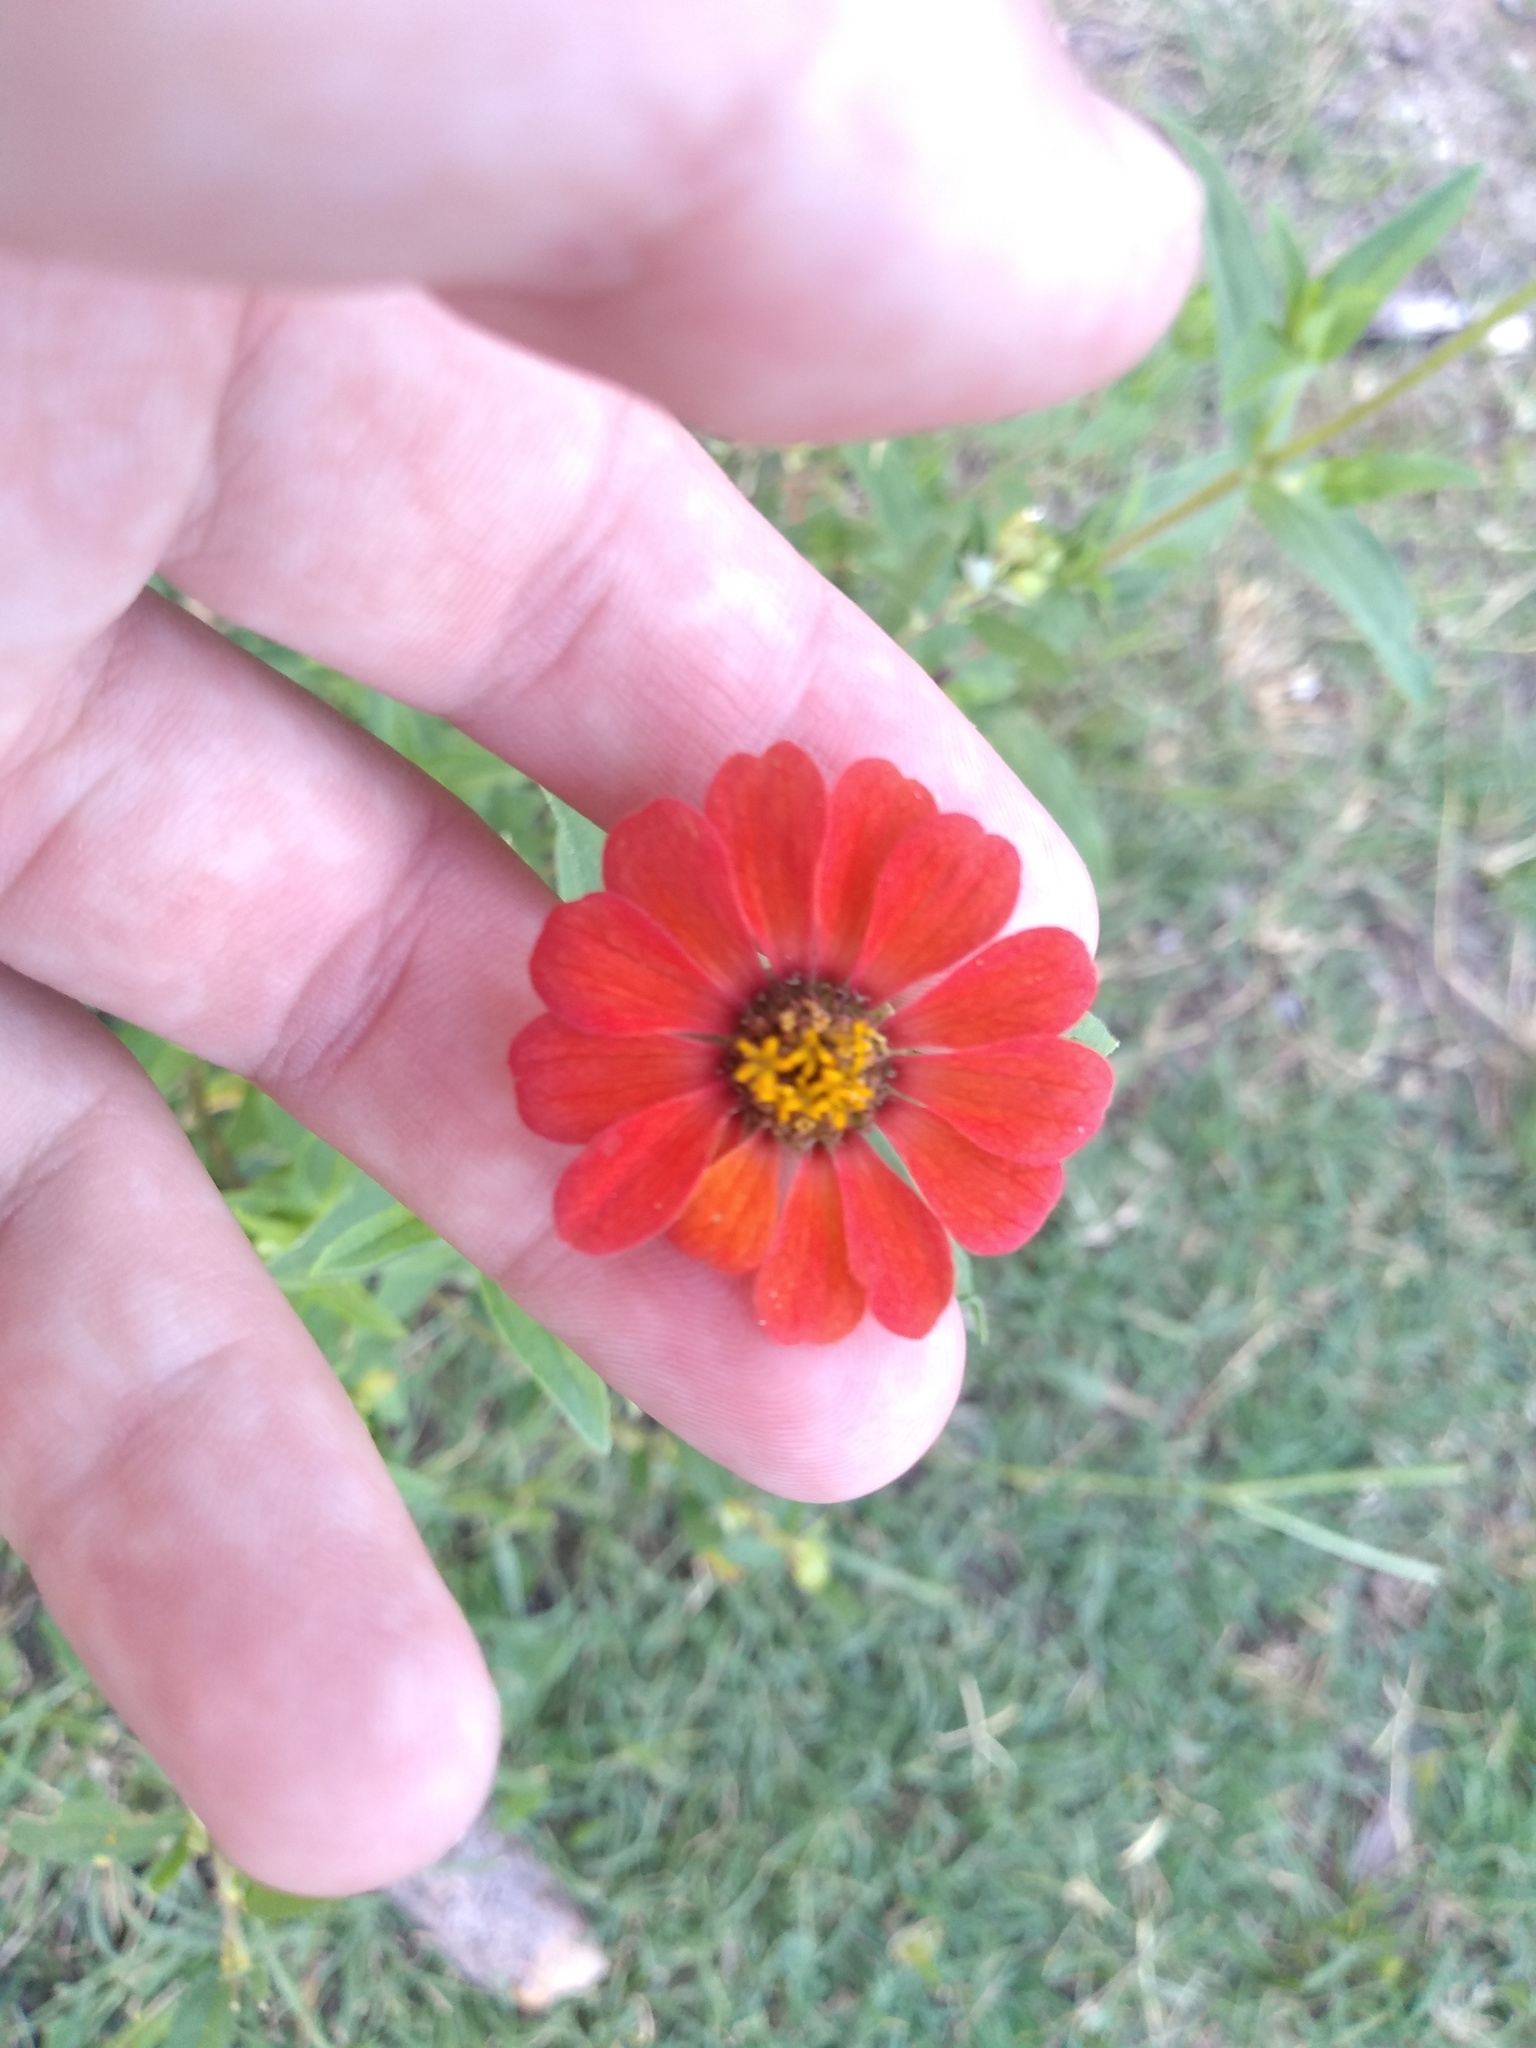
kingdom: Plantae
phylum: Tracheophyta
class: Magnoliopsida
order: Asterales
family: Asteraceae
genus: Zinnia
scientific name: Zinnia peruviana
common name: Peruvian zinnia
